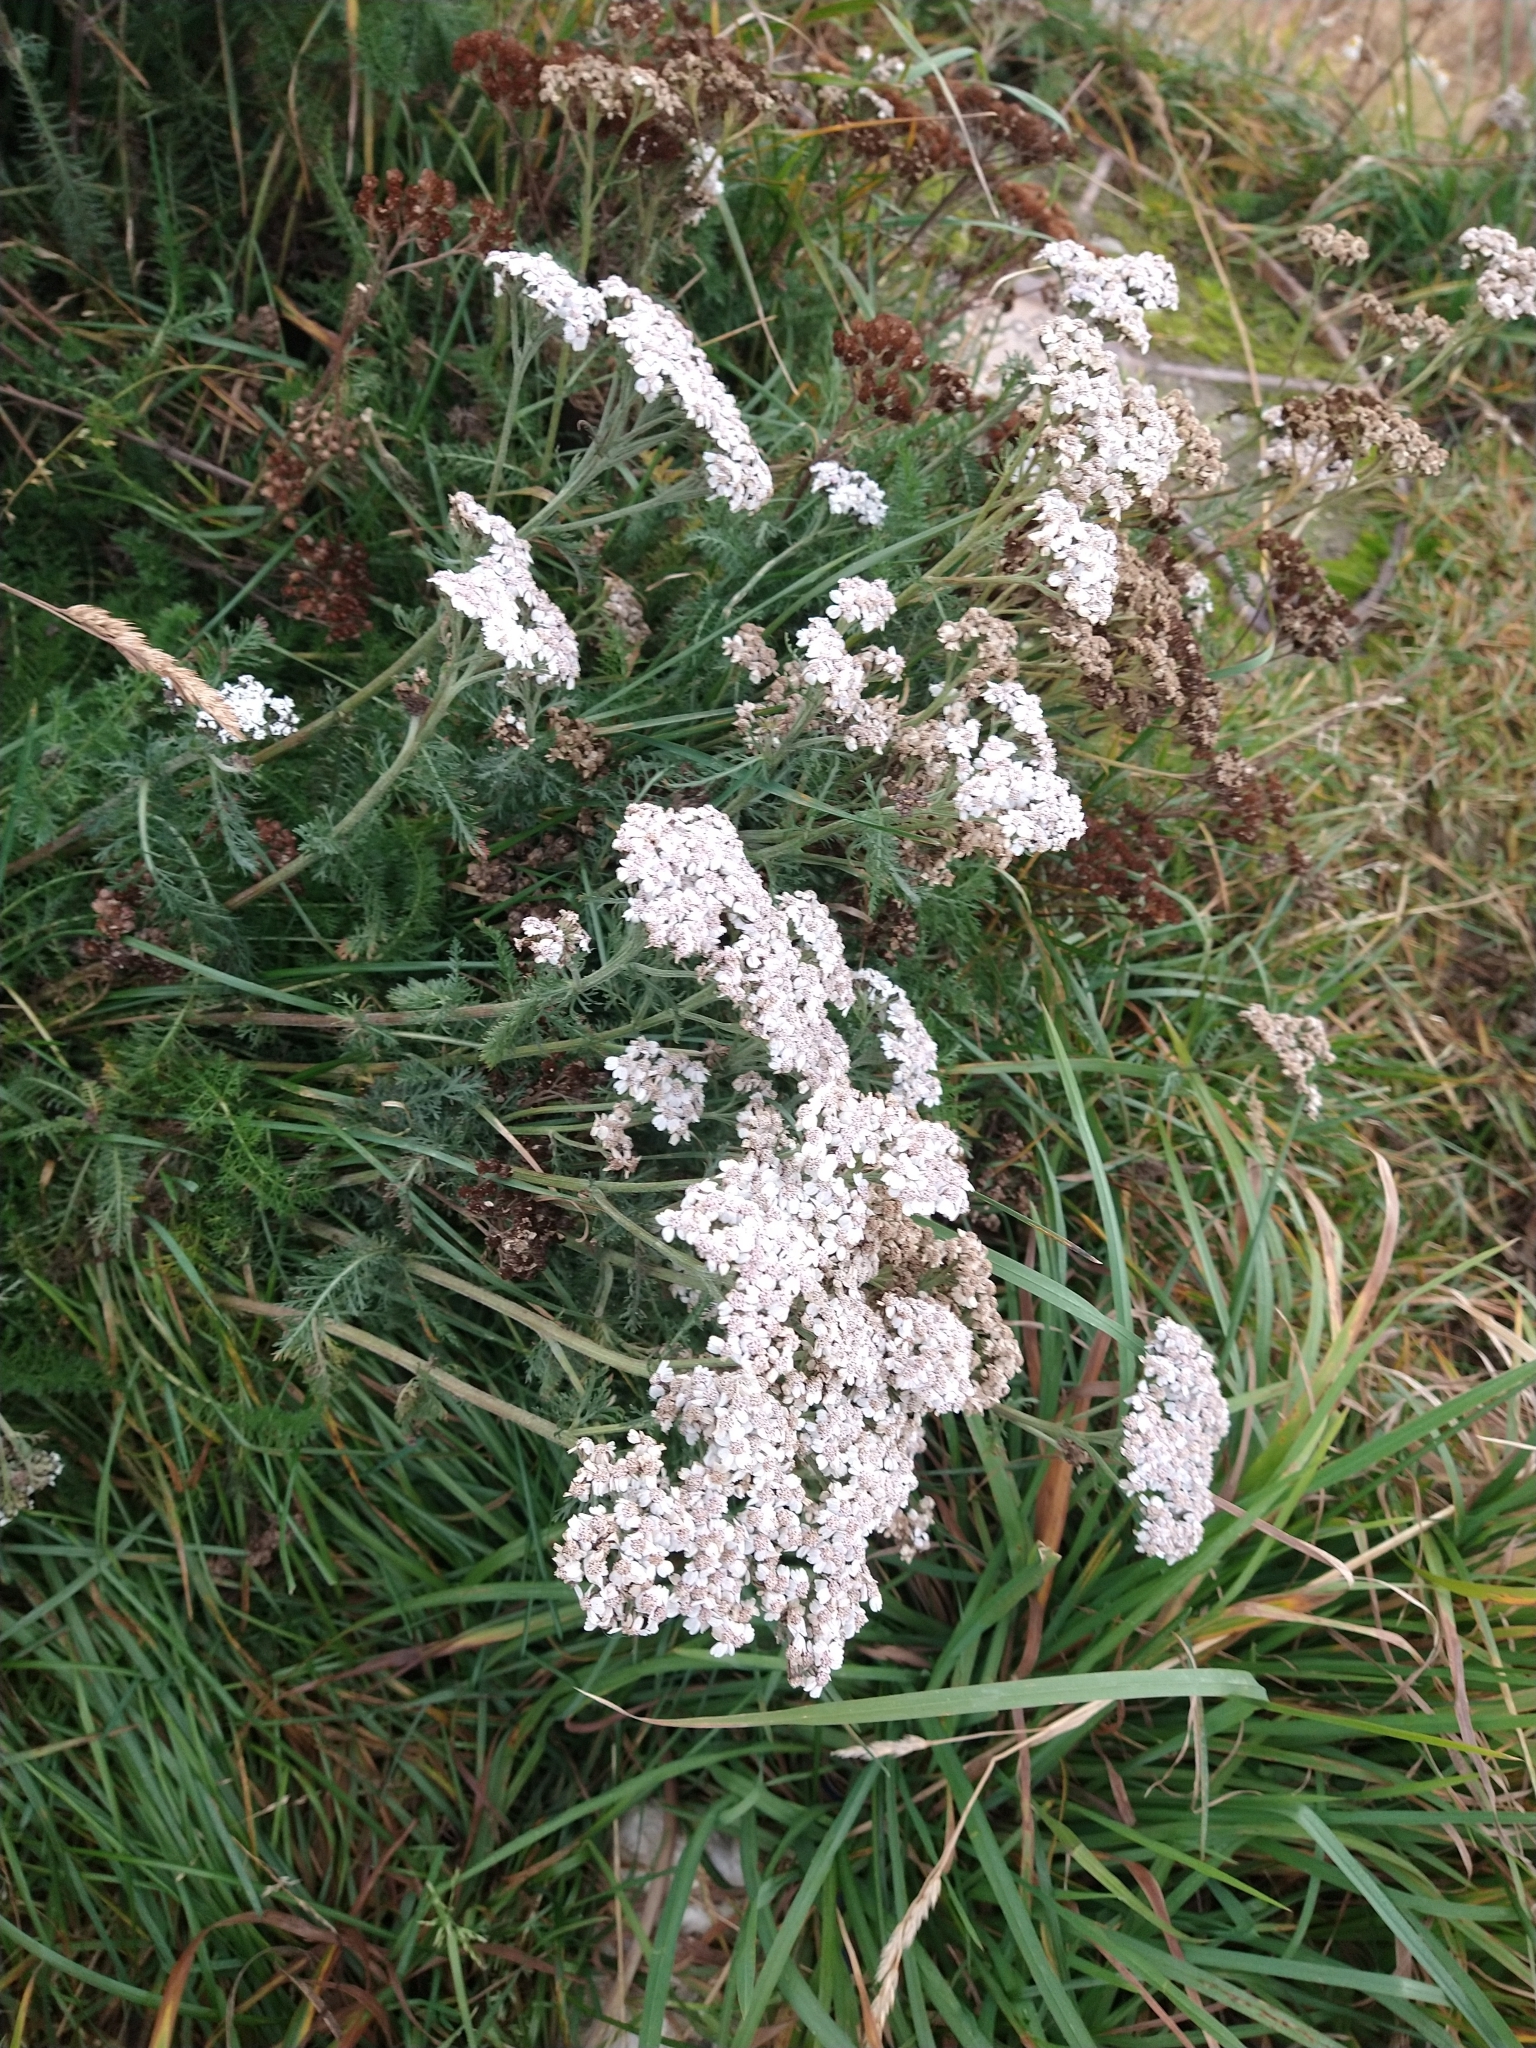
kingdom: Plantae
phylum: Tracheophyta
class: Magnoliopsida
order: Asterales
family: Asteraceae
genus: Achillea
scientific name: Achillea millefolium
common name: Yarrow
